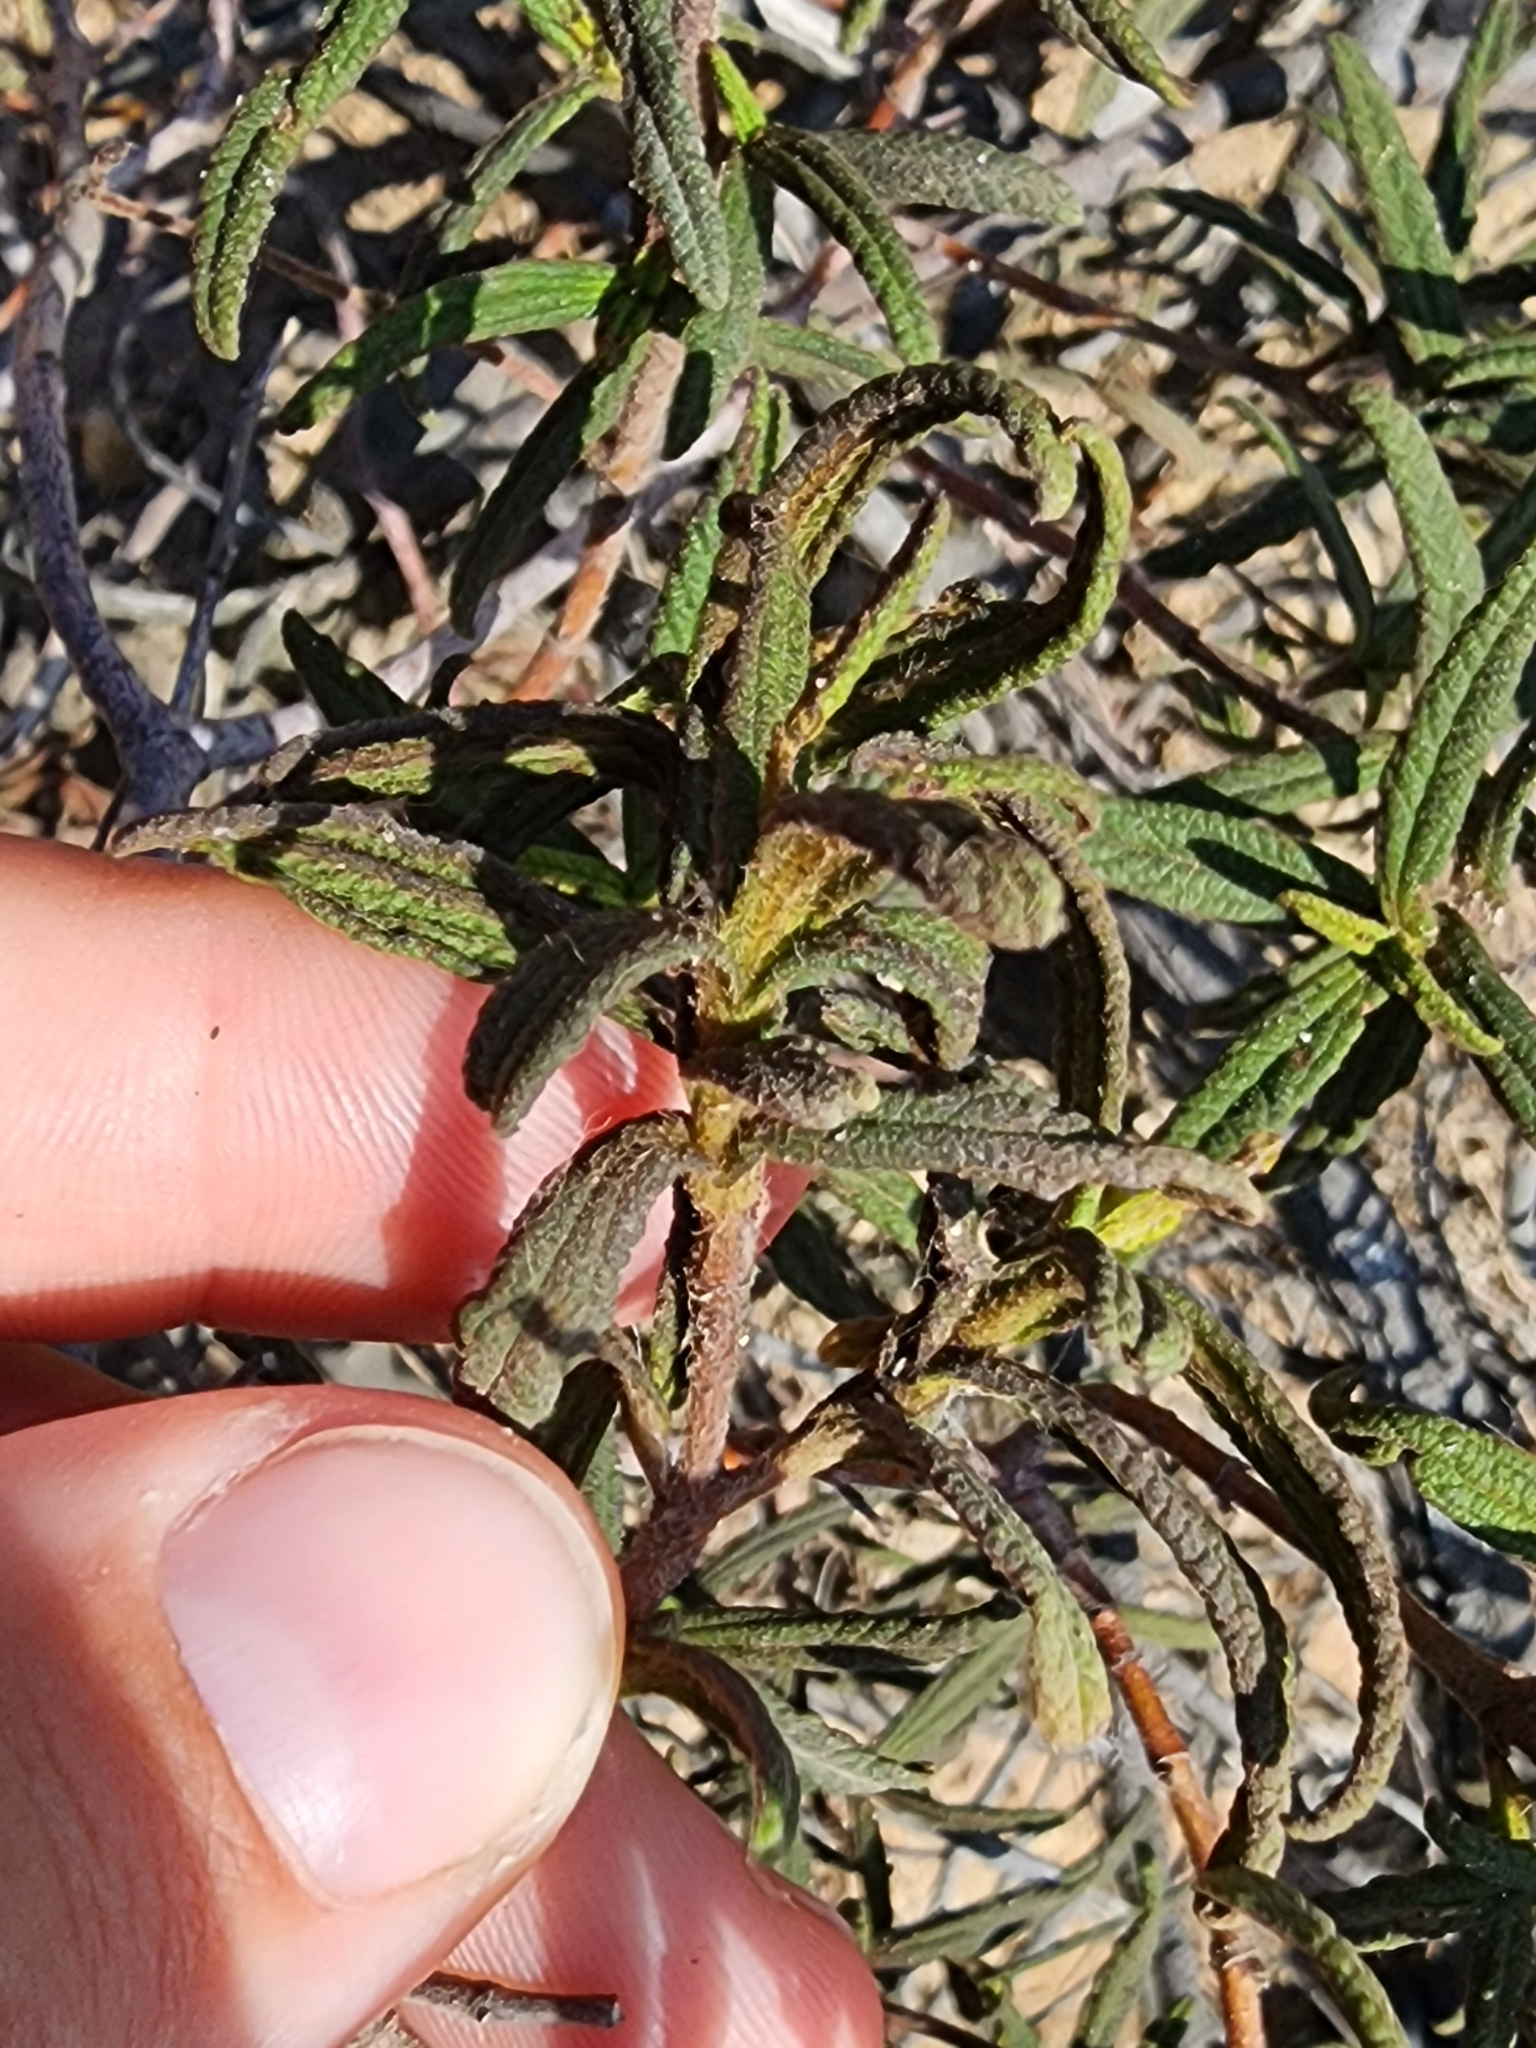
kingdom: Plantae
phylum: Tracheophyta
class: Magnoliopsida
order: Malvales
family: Cistaceae
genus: Cistus
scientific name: Cistus monspeliensis
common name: Montpelier cistus
